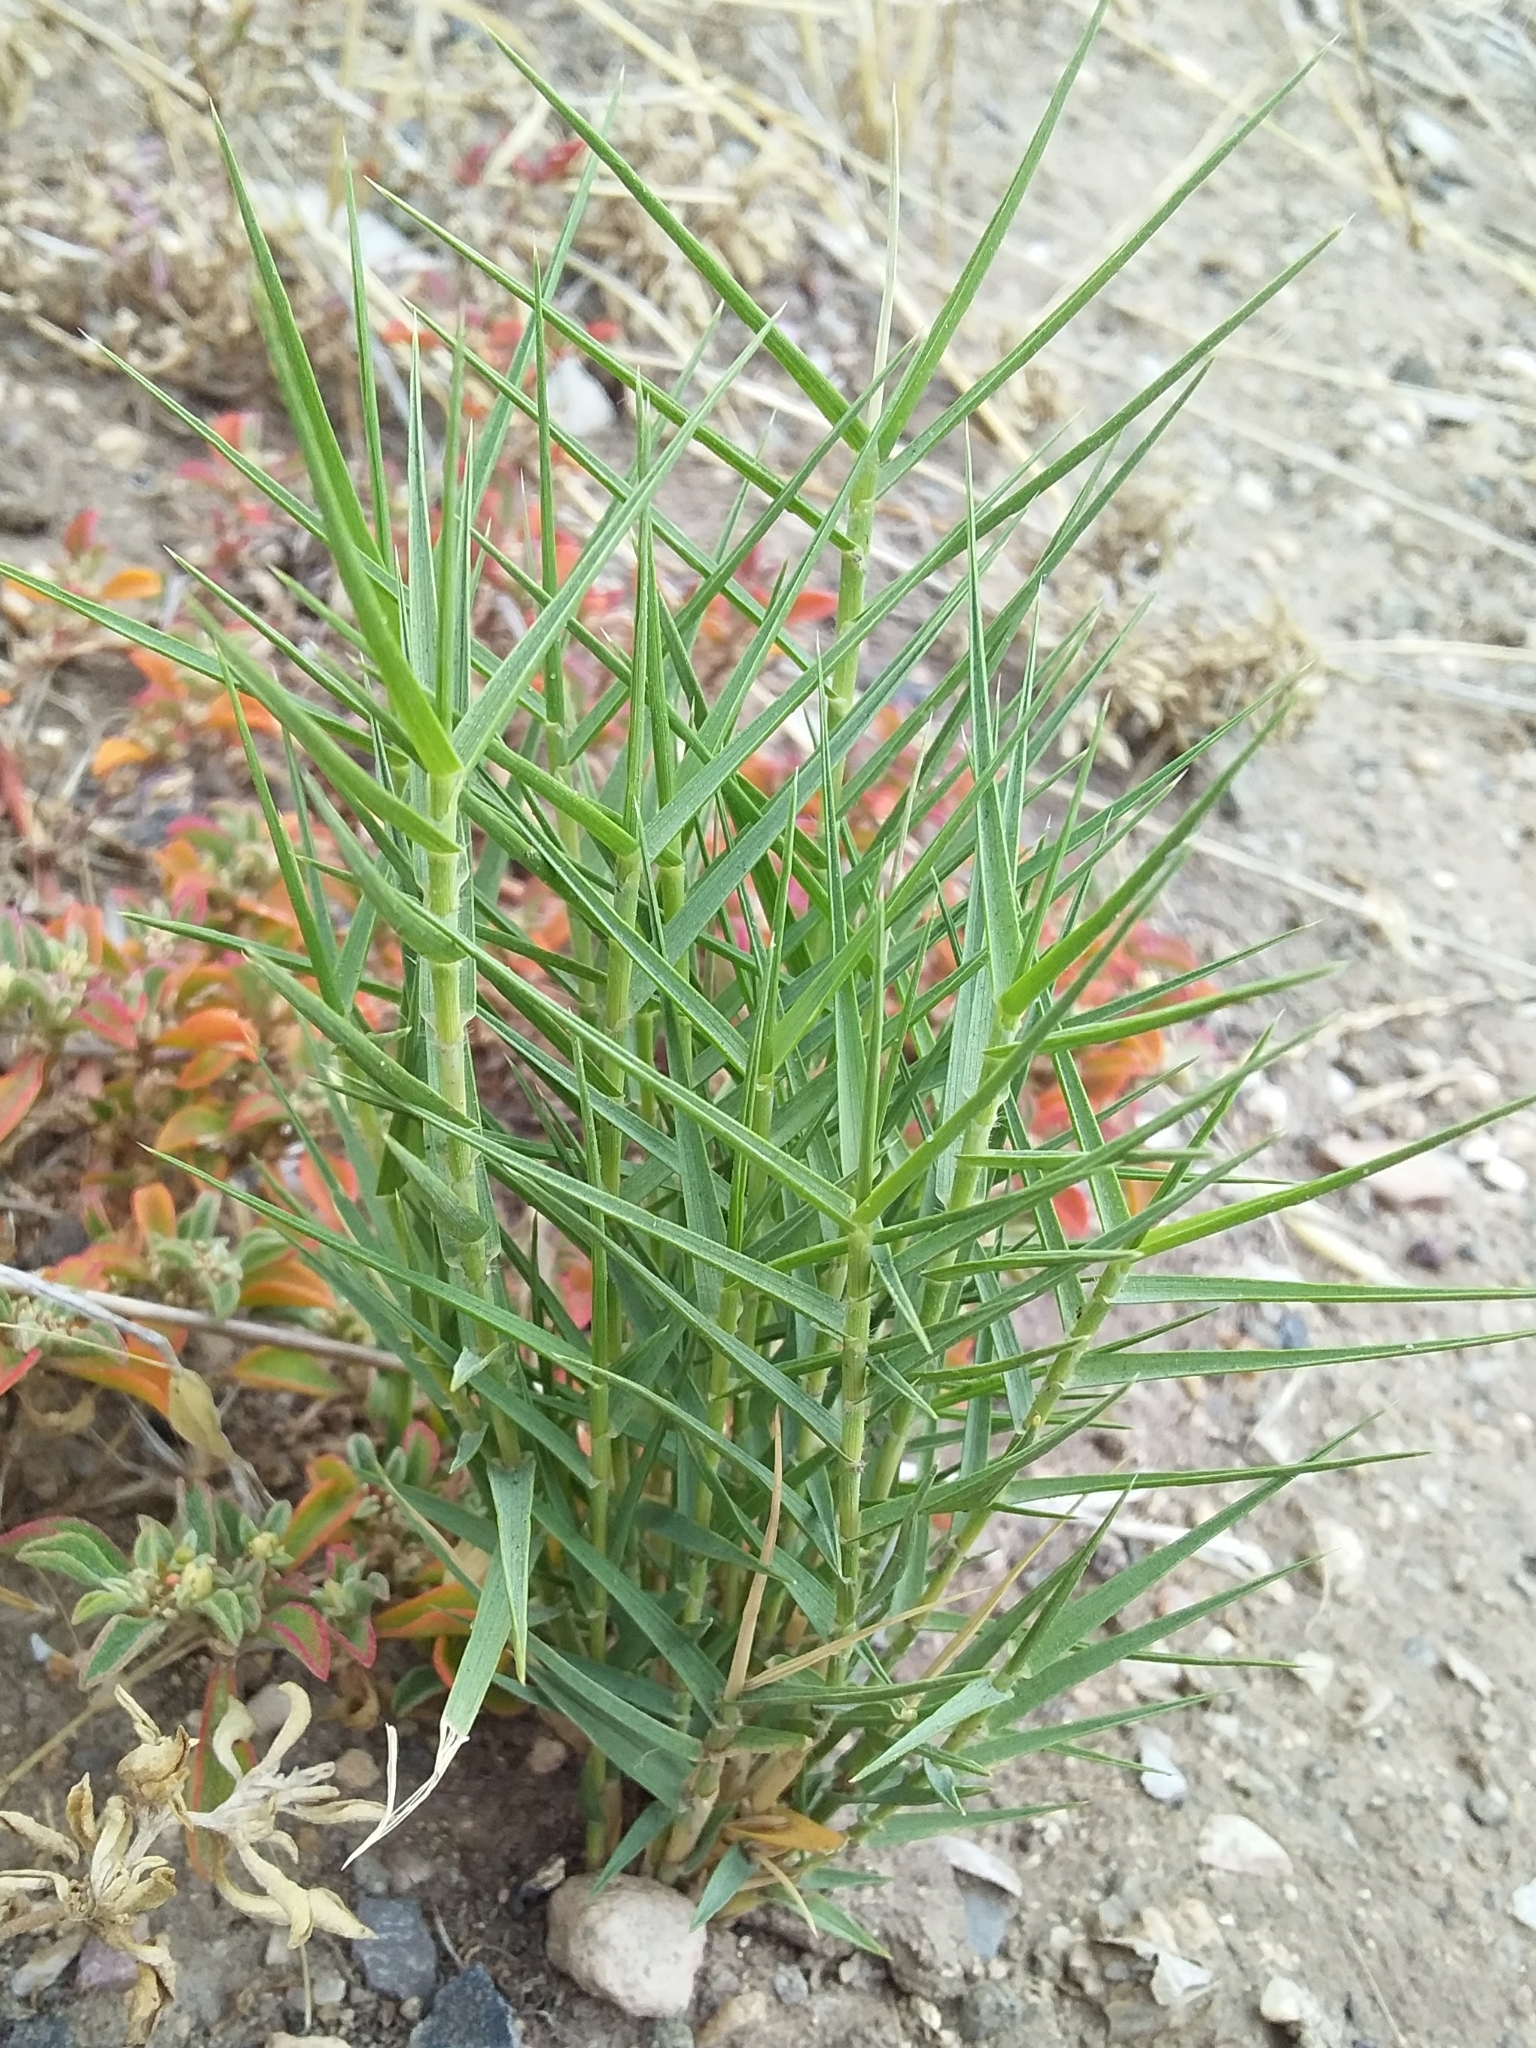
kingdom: Plantae
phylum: Tracheophyta
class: Liliopsida
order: Poales
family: Poaceae
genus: Distichlis
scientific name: Distichlis distichophylla
